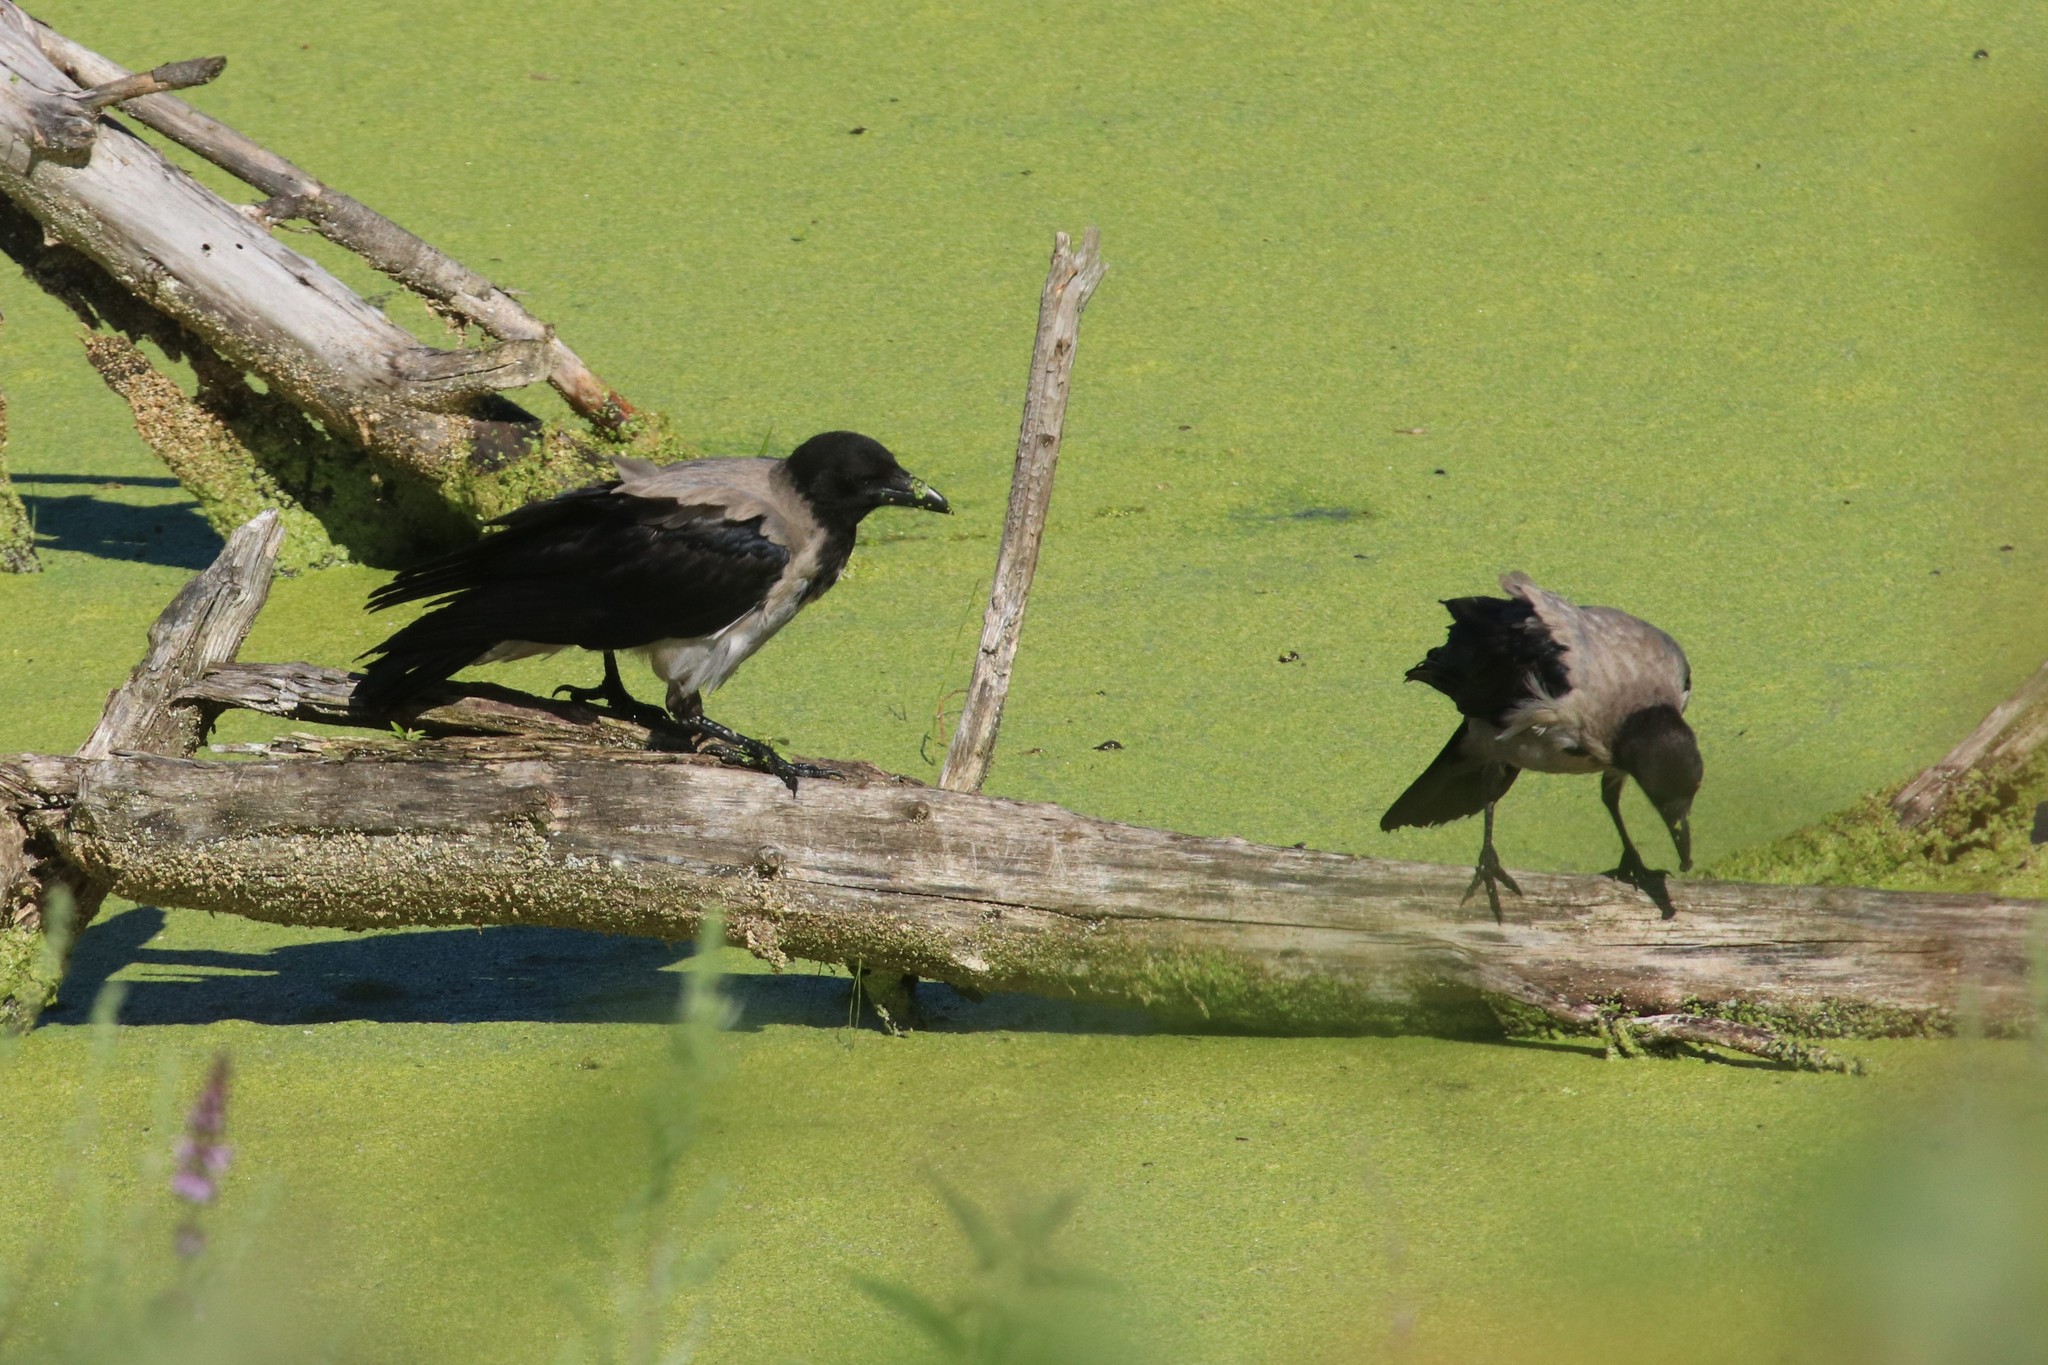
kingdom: Animalia
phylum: Chordata
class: Aves
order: Passeriformes
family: Corvidae
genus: Corvus
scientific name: Corvus cornix
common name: Hooded crow
